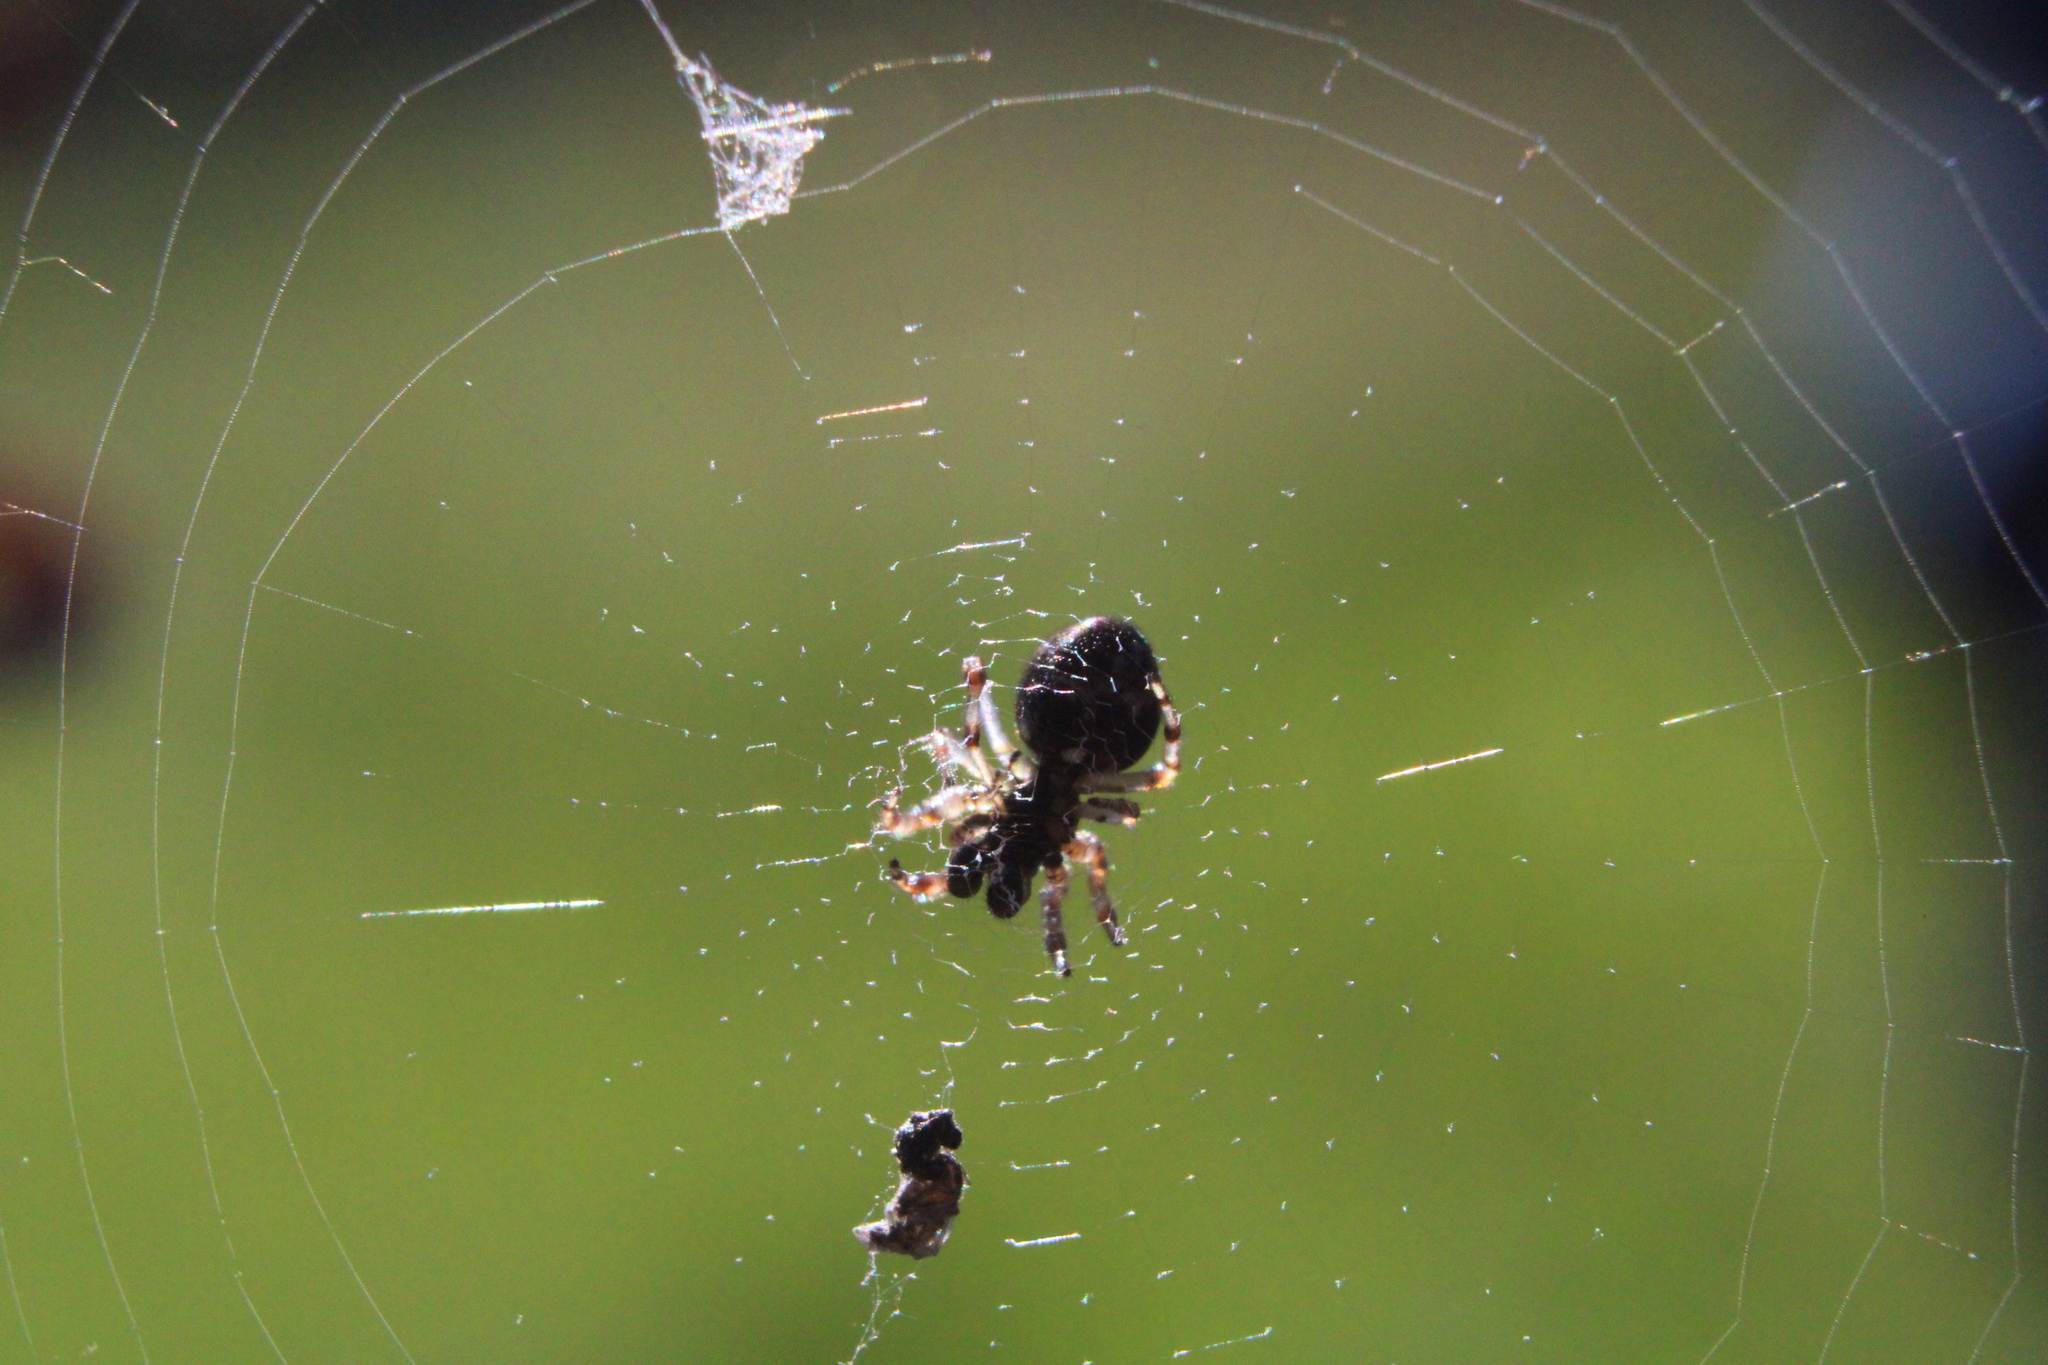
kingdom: Animalia
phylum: Arthropoda
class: Arachnida
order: Araneae
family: Araneidae
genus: Cyclosa
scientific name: Cyclosa turbinata
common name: Orb weavers
